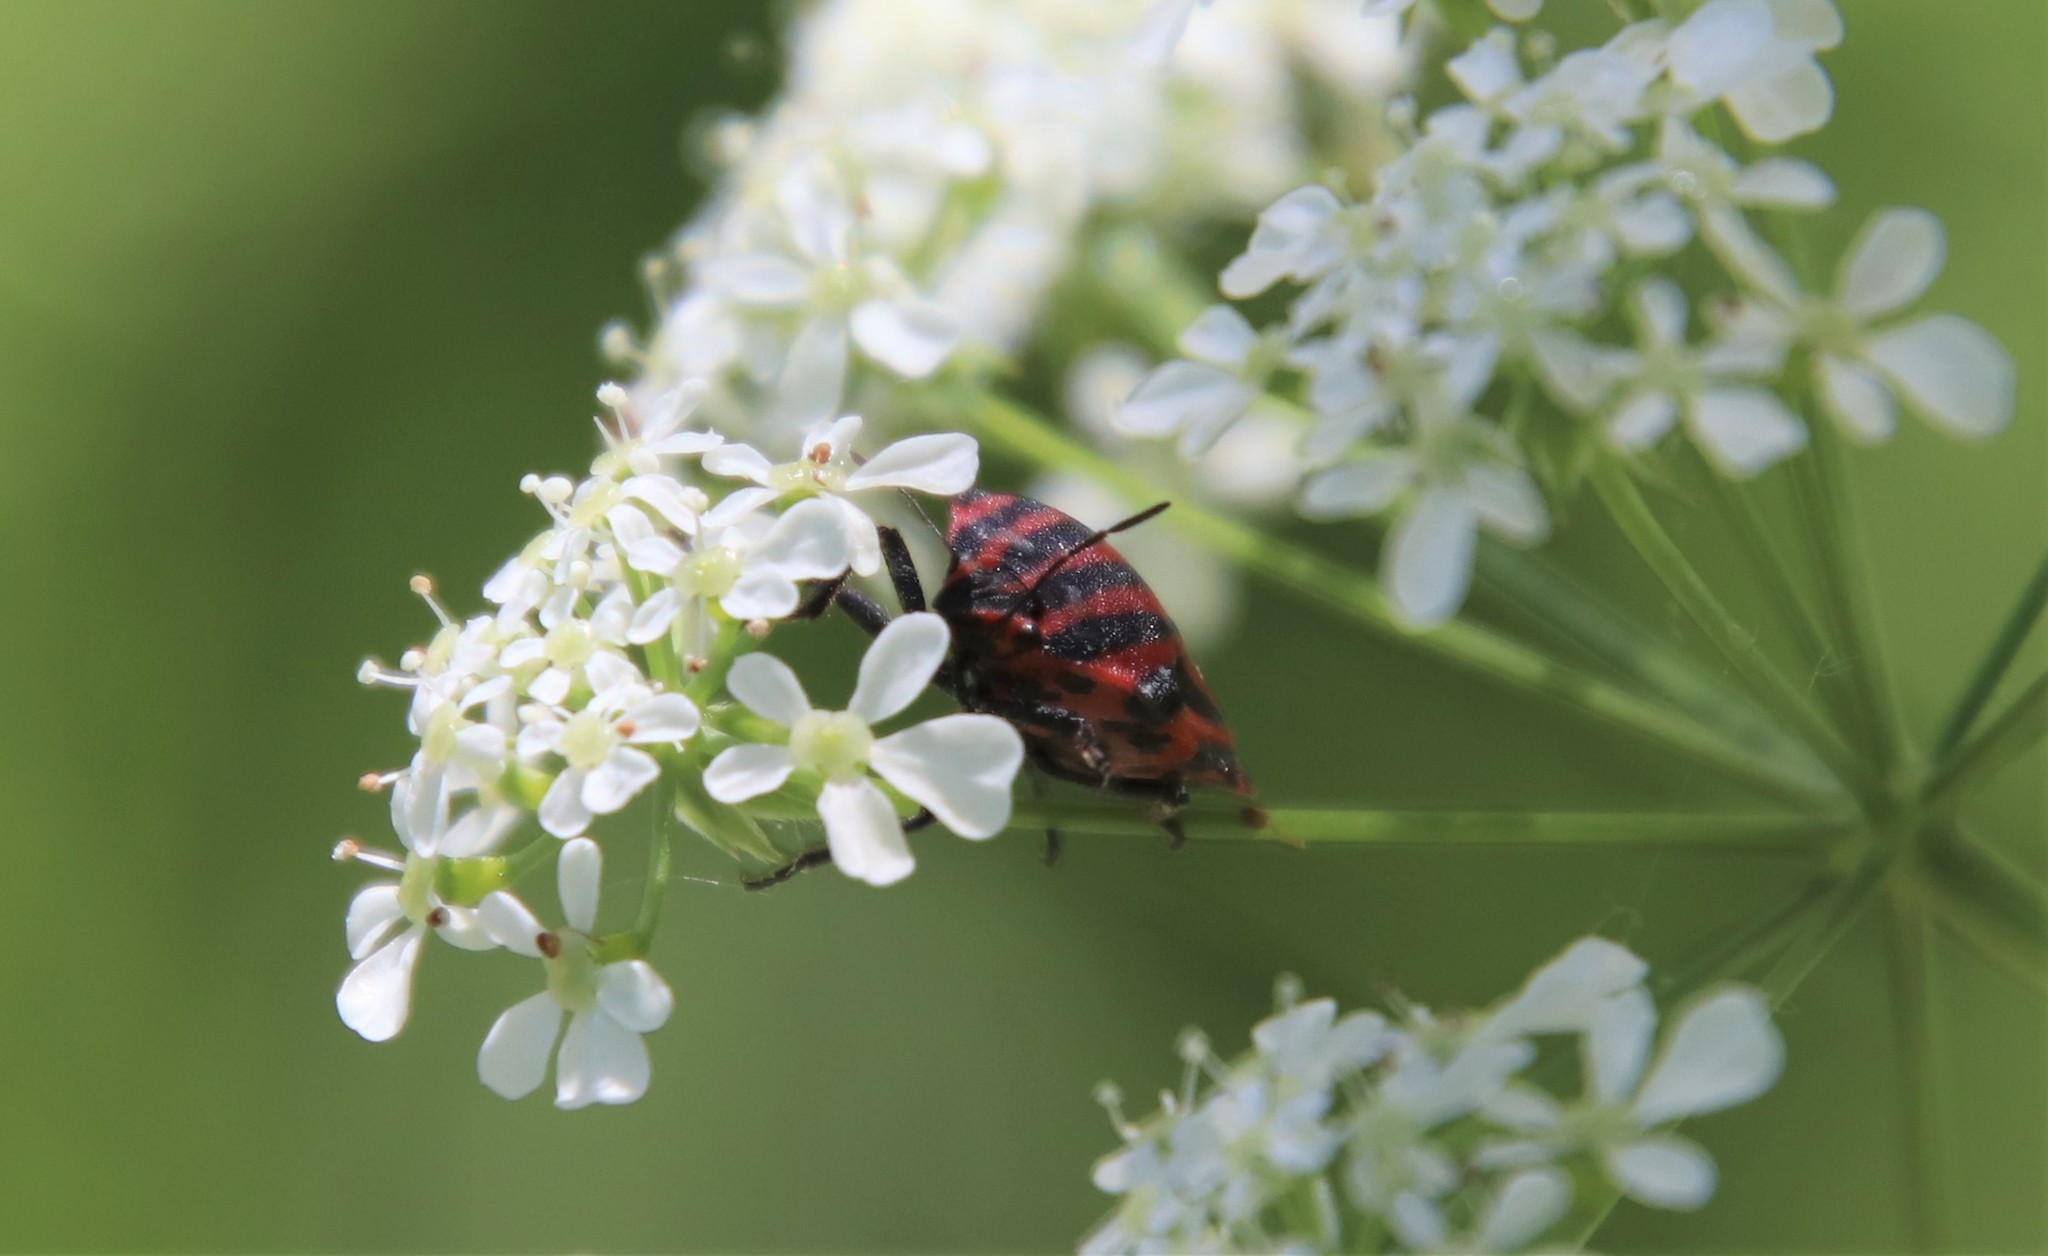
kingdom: Animalia
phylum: Arthropoda
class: Insecta
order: Hemiptera
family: Pentatomidae
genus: Graphosoma
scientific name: Graphosoma italicum
